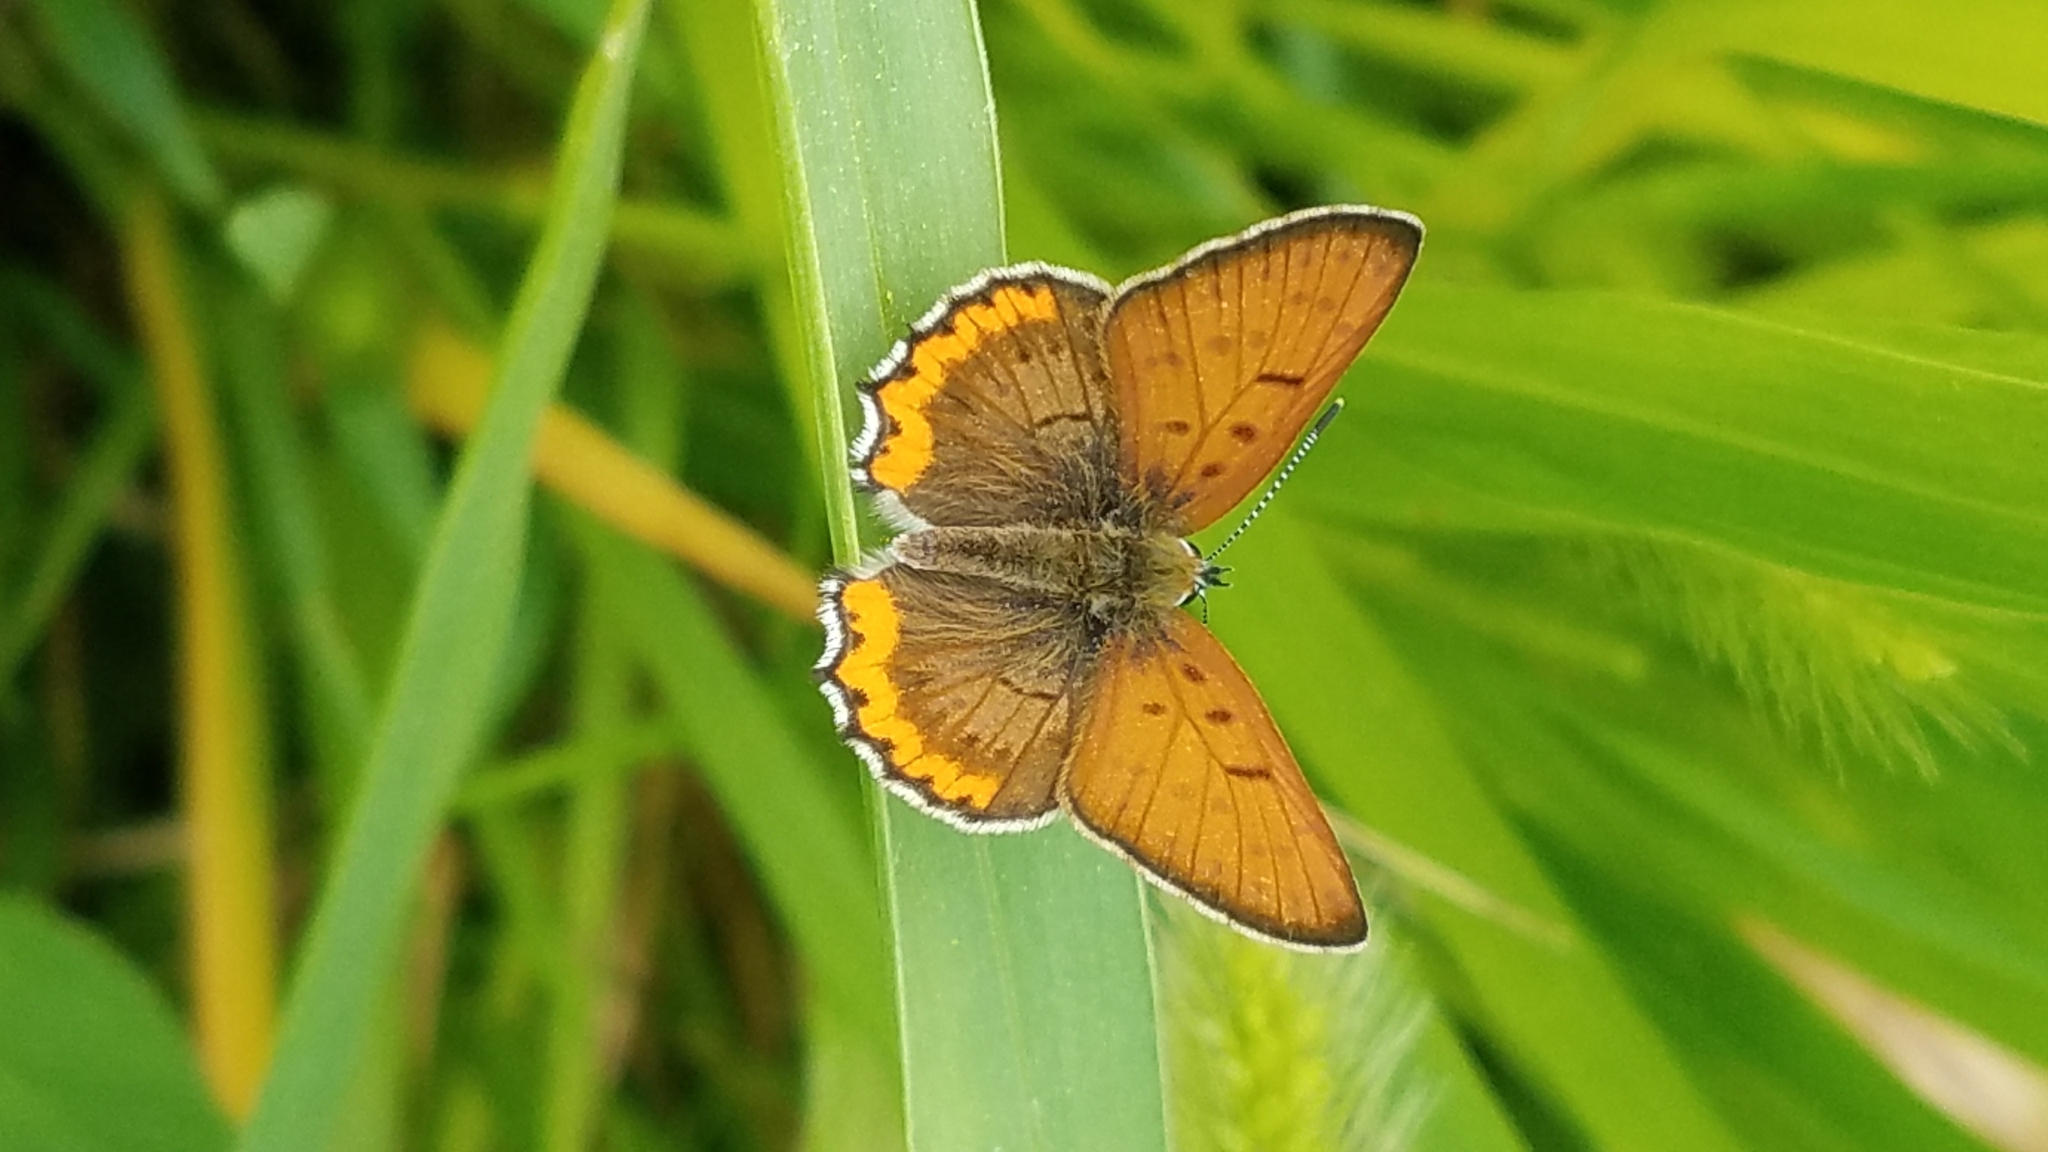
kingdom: Animalia
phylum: Arthropoda
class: Insecta
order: Lepidoptera
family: Lycaenidae
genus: Tharsalea
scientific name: Tharsalea hyllus
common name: Bronze copper
